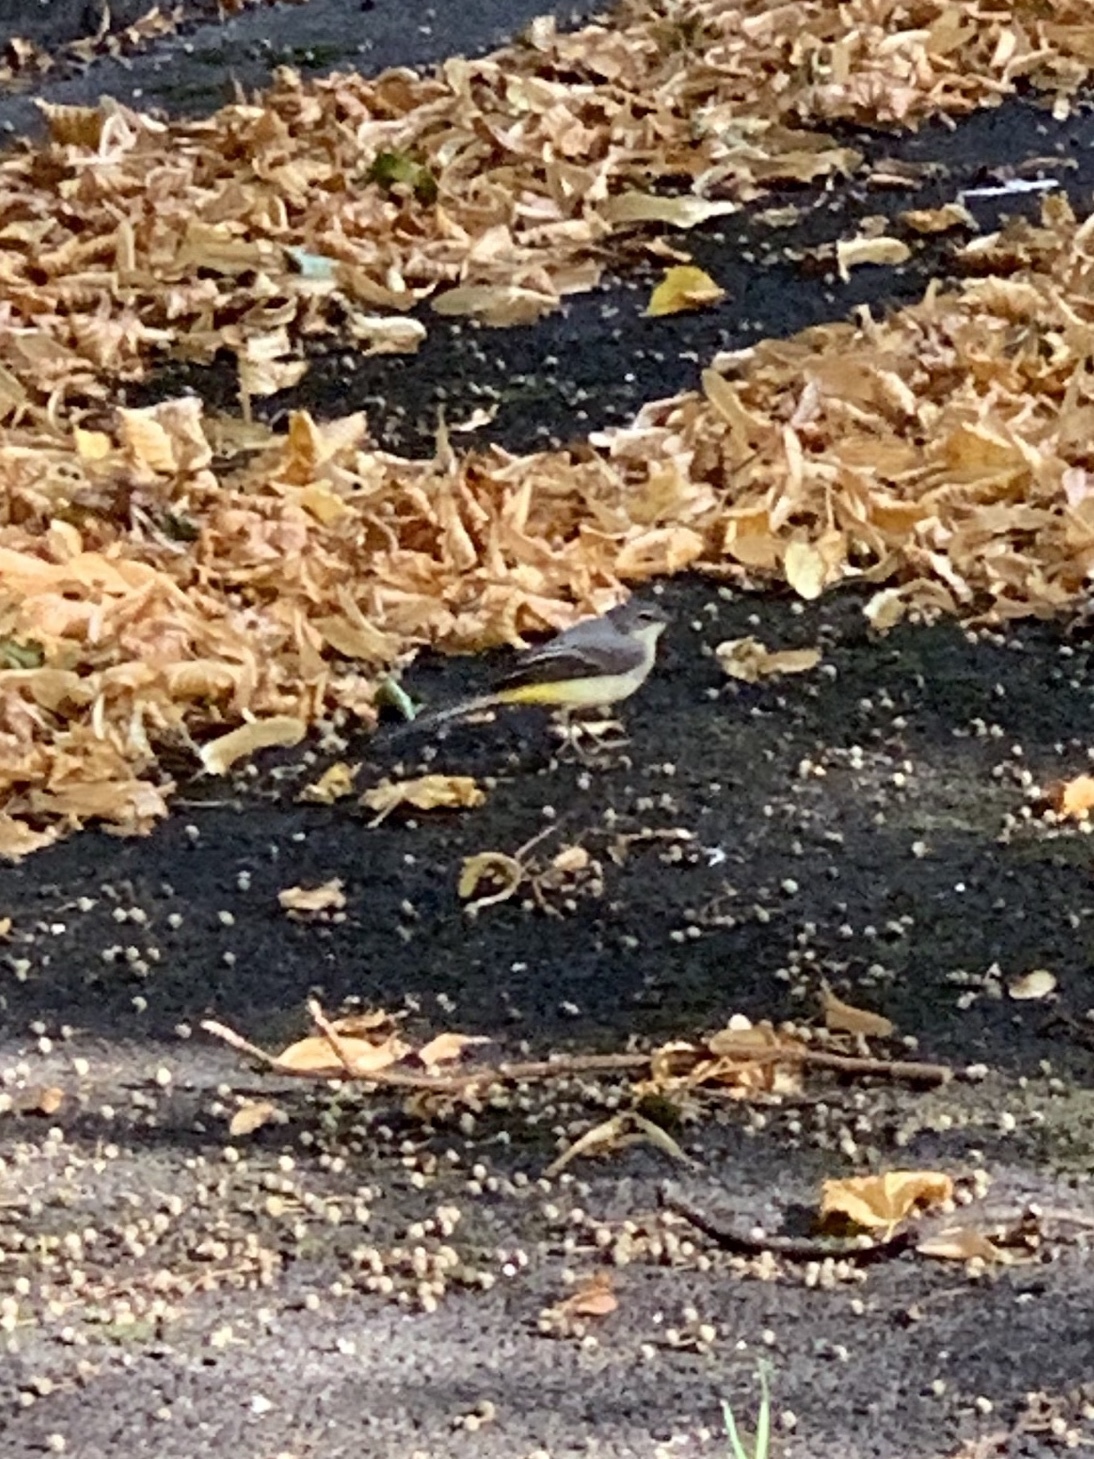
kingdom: Animalia
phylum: Chordata
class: Aves
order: Passeriformes
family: Motacillidae
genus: Motacilla
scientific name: Motacilla cinerea
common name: Grey wagtail
